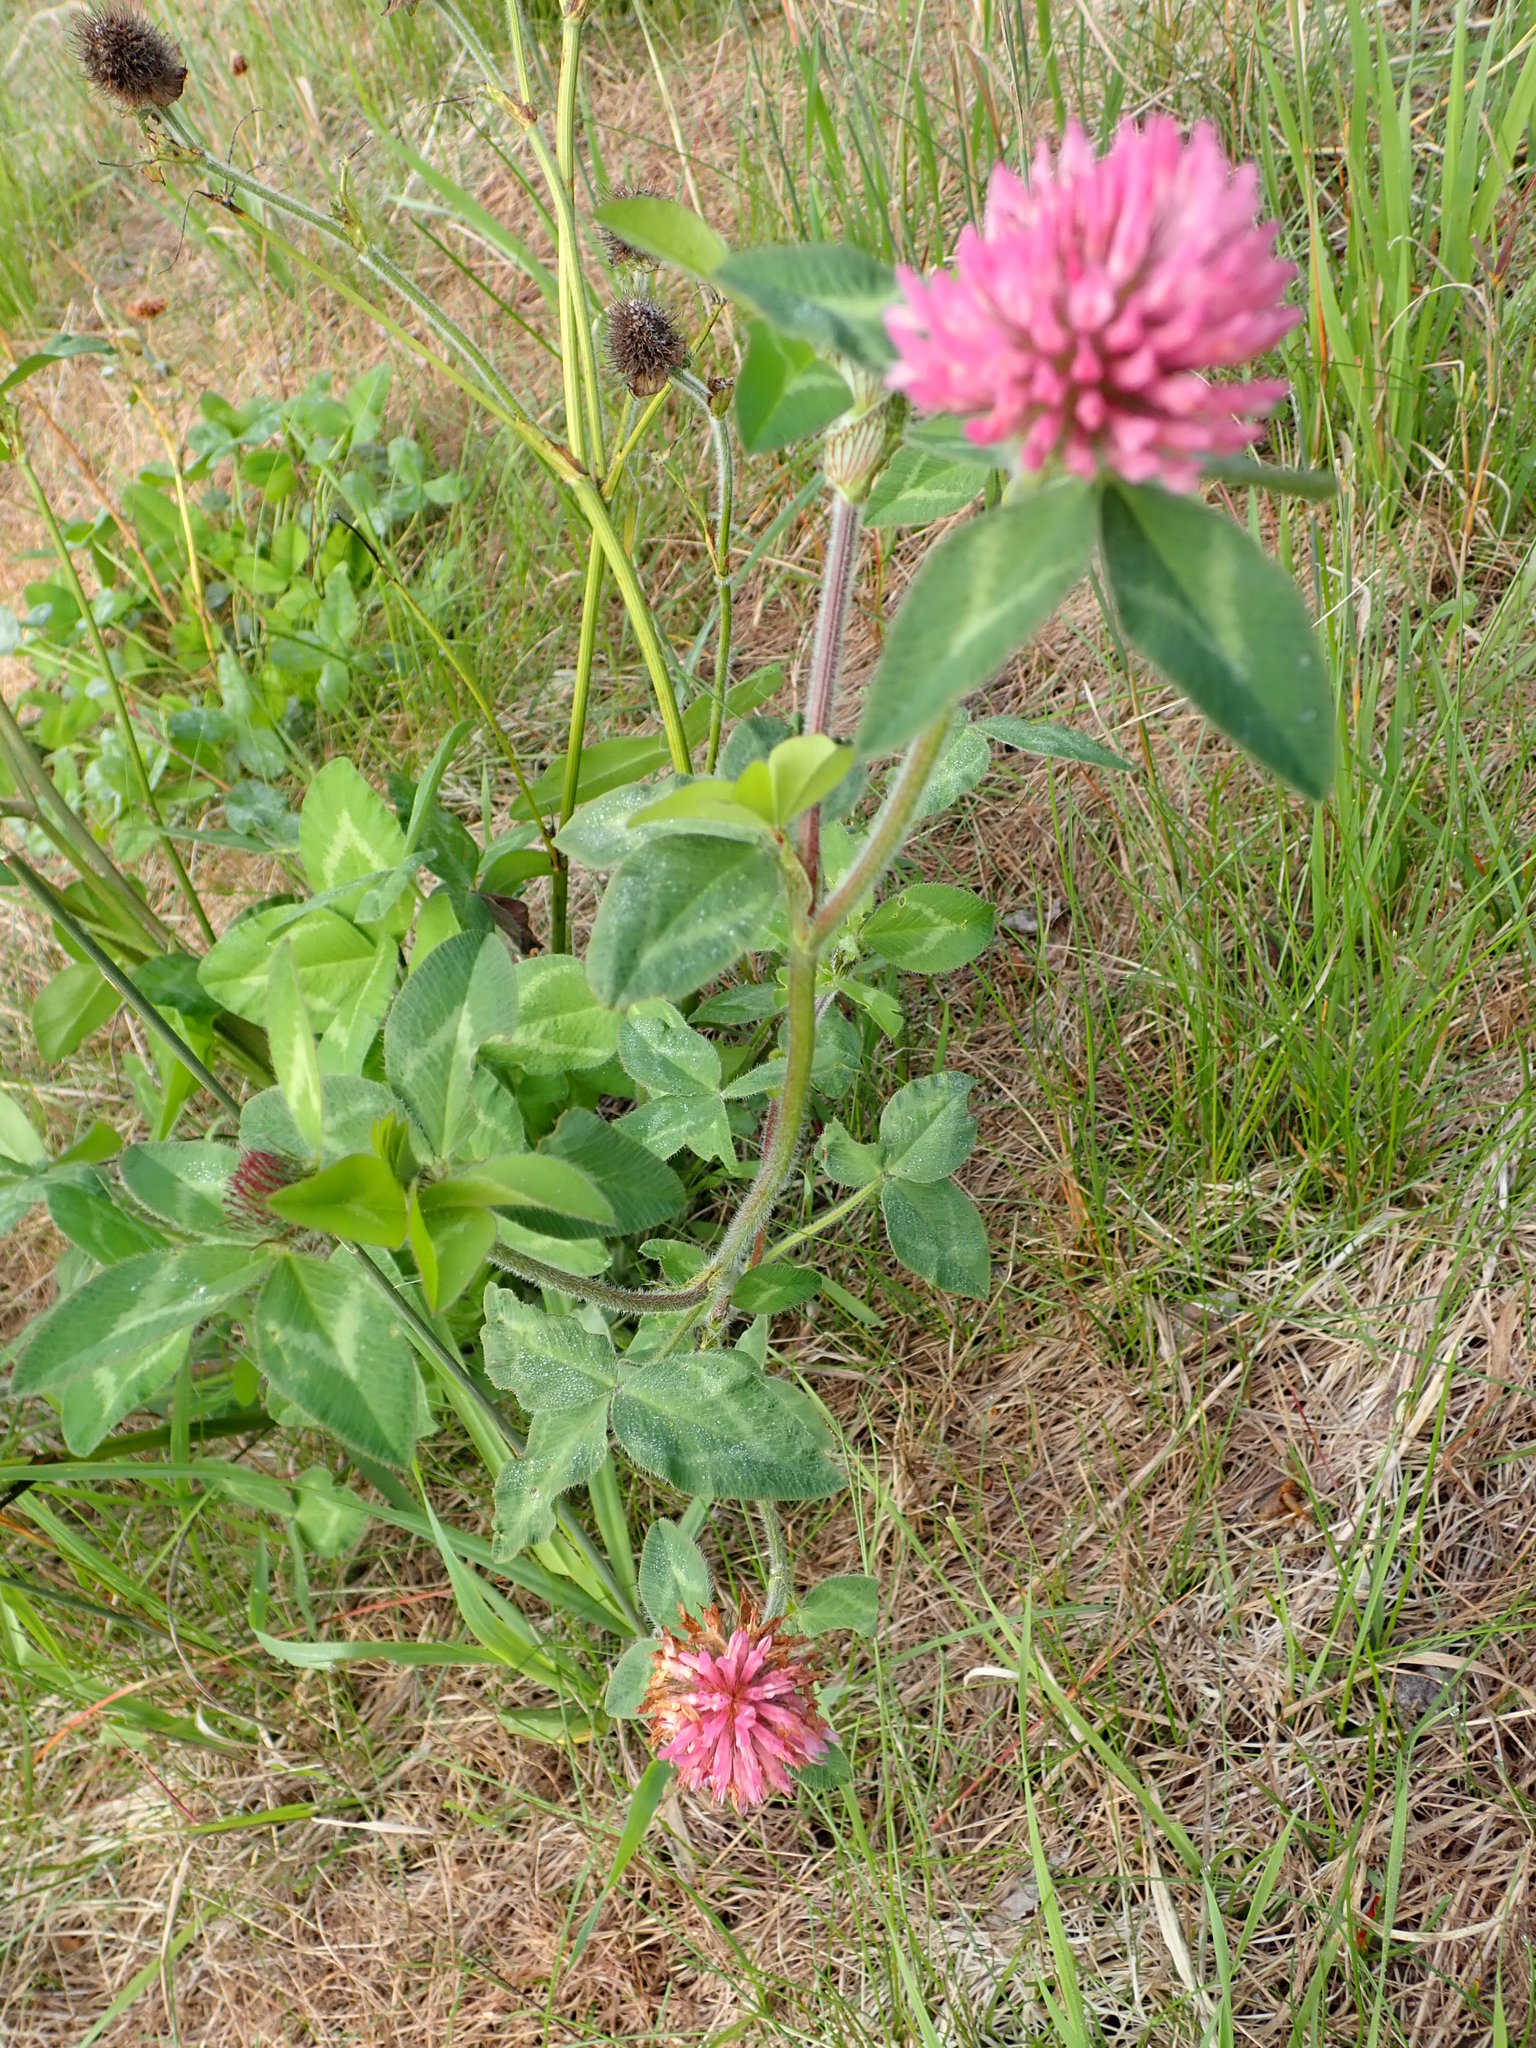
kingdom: Plantae
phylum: Tracheophyta
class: Magnoliopsida
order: Fabales
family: Fabaceae
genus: Trifolium
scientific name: Trifolium pratense
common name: Red clover
